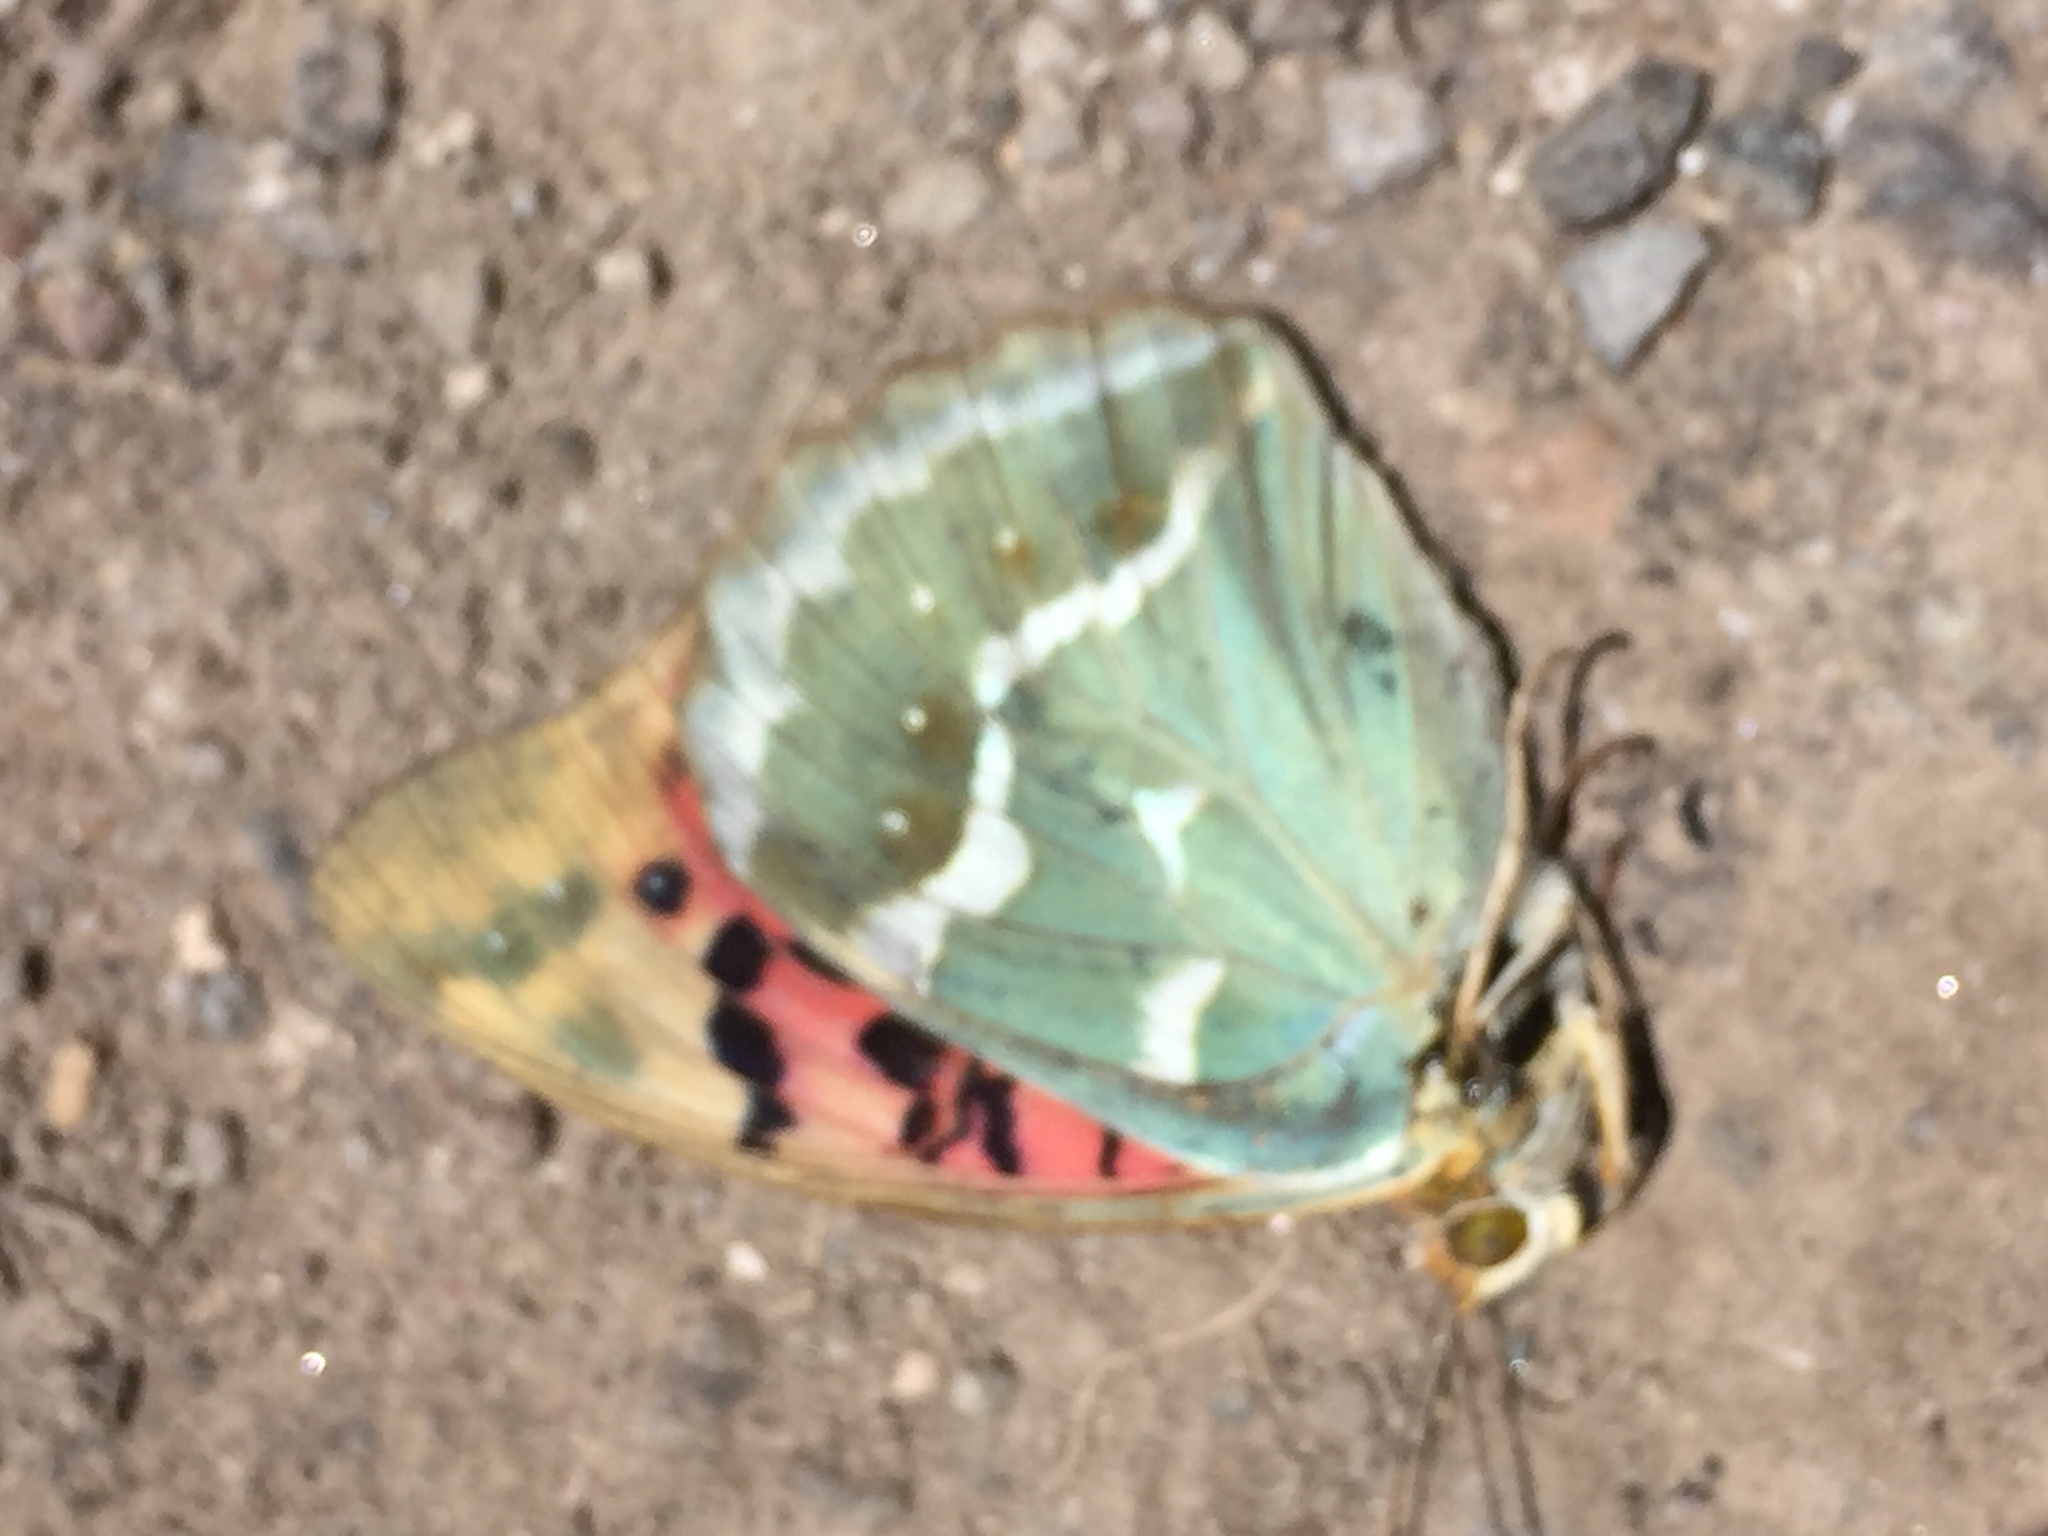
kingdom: Animalia
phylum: Arthropoda
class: Insecta
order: Lepidoptera
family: Nymphalidae
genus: Damora
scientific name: Damora pandora
